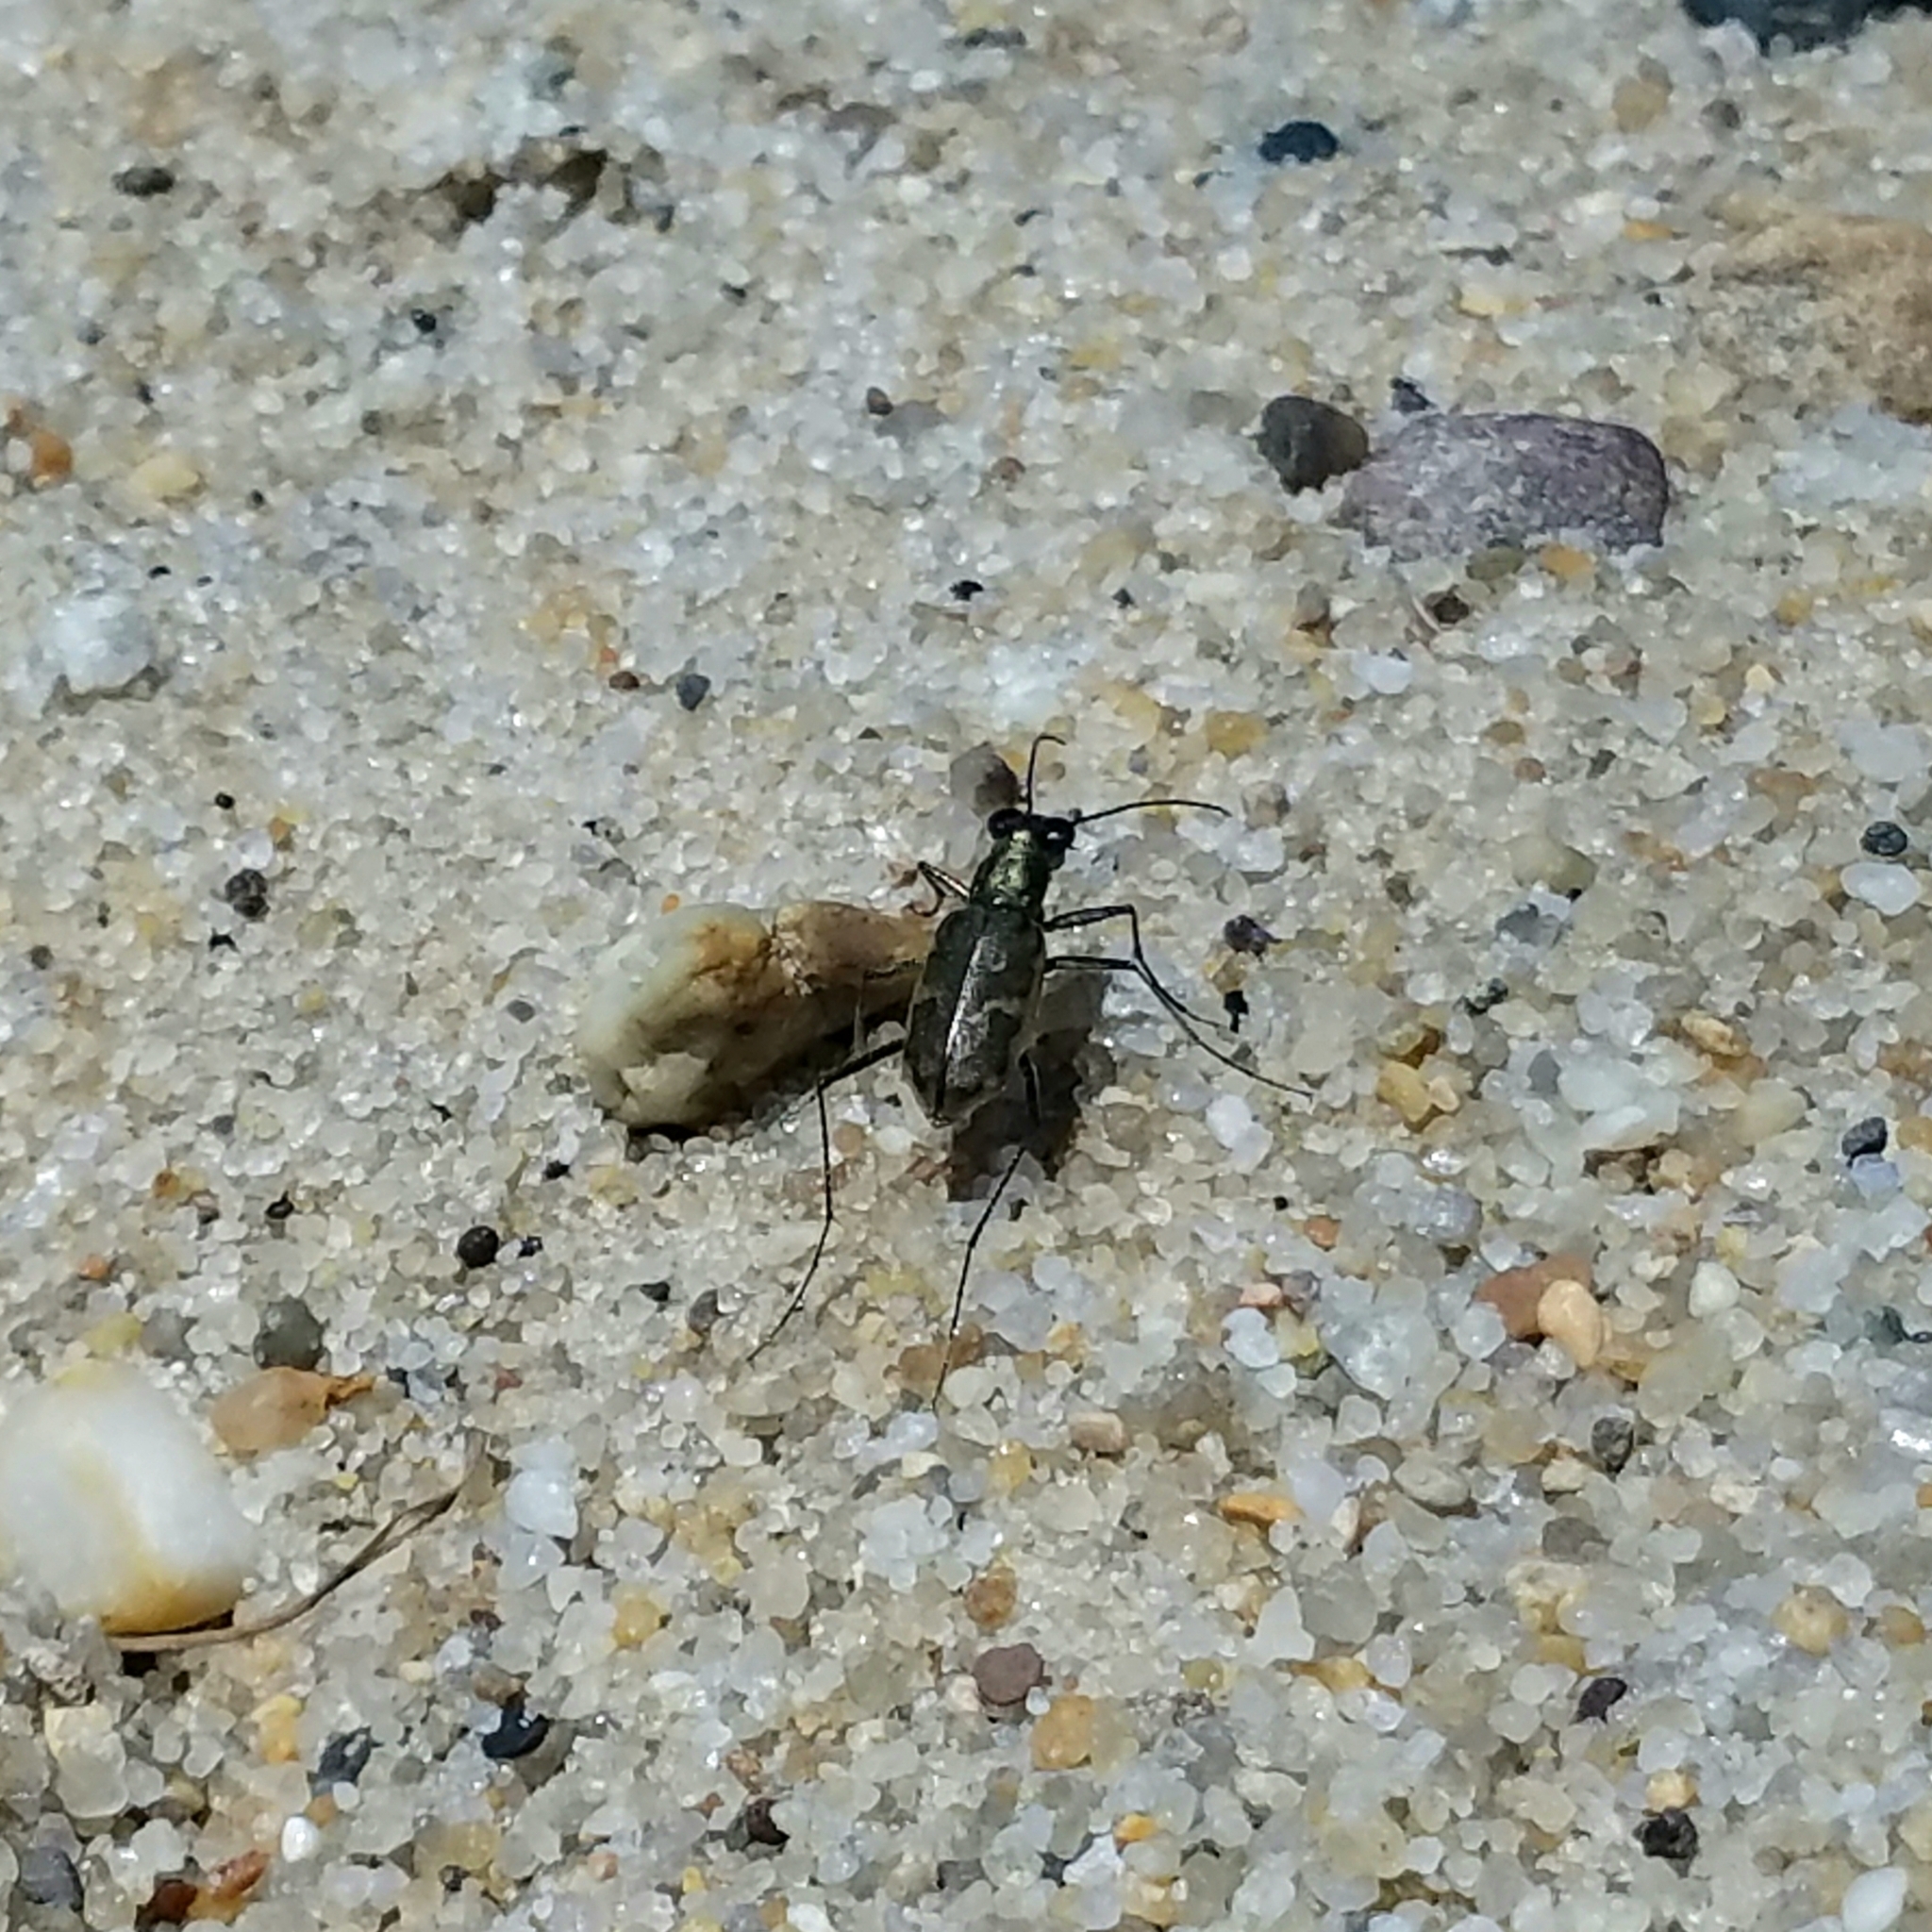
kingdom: Animalia
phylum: Arthropoda
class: Insecta
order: Coleoptera
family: Carabidae
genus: Ellipsoptera
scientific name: Ellipsoptera marginata
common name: Margined tiger beetle
